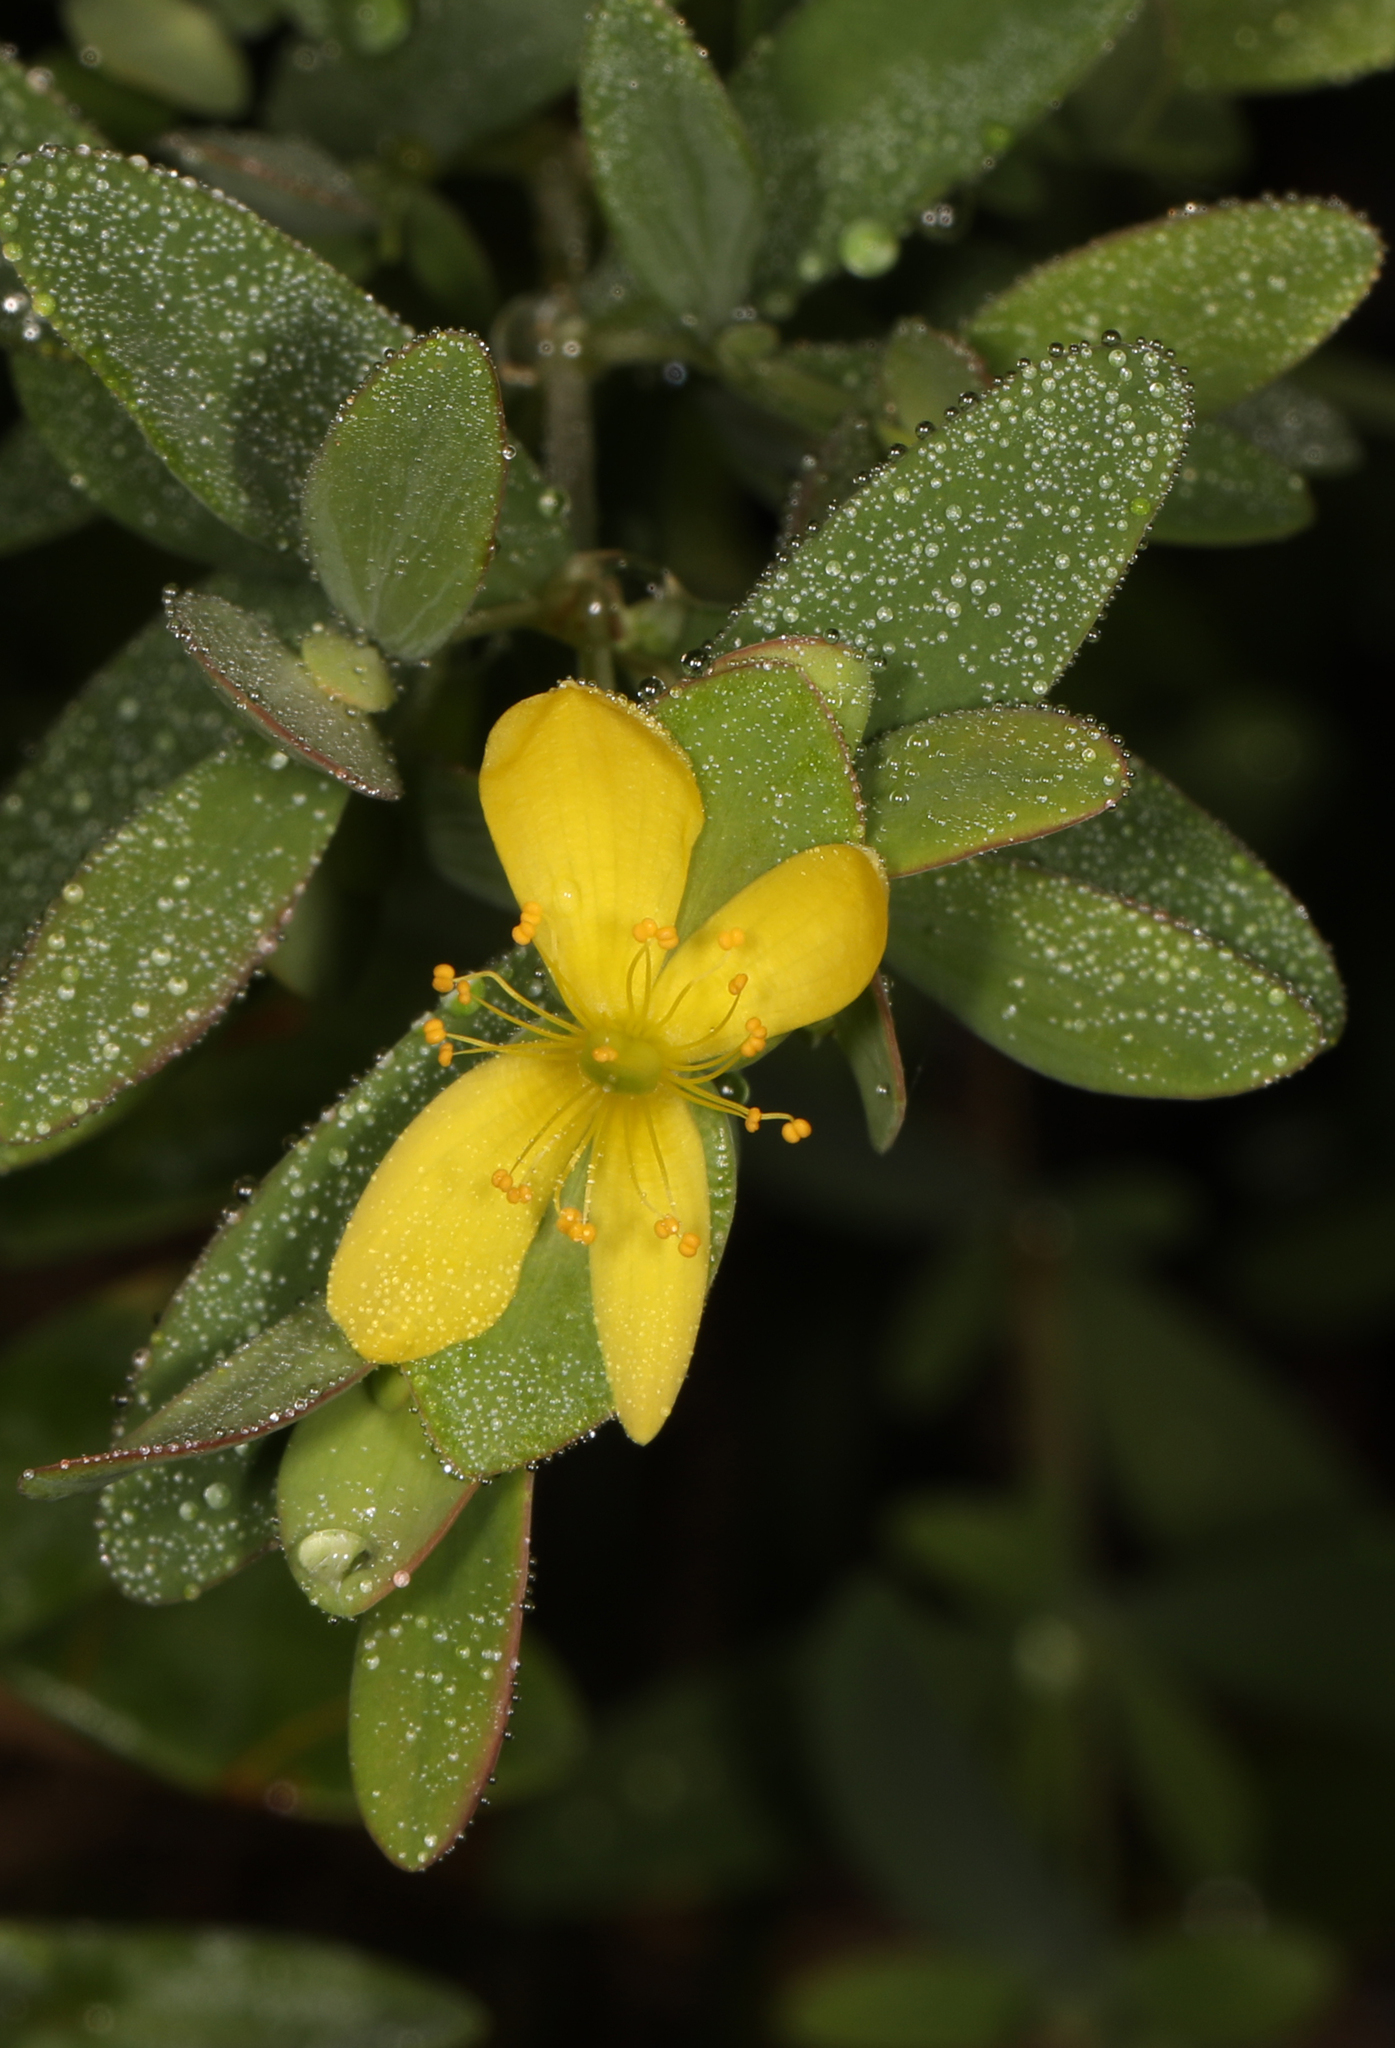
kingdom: Plantae
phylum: Tracheophyta
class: Magnoliopsida
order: Malpighiales
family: Hypericaceae
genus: Hypericum
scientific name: Hypericum hypericoides
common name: St. andrew's cross
